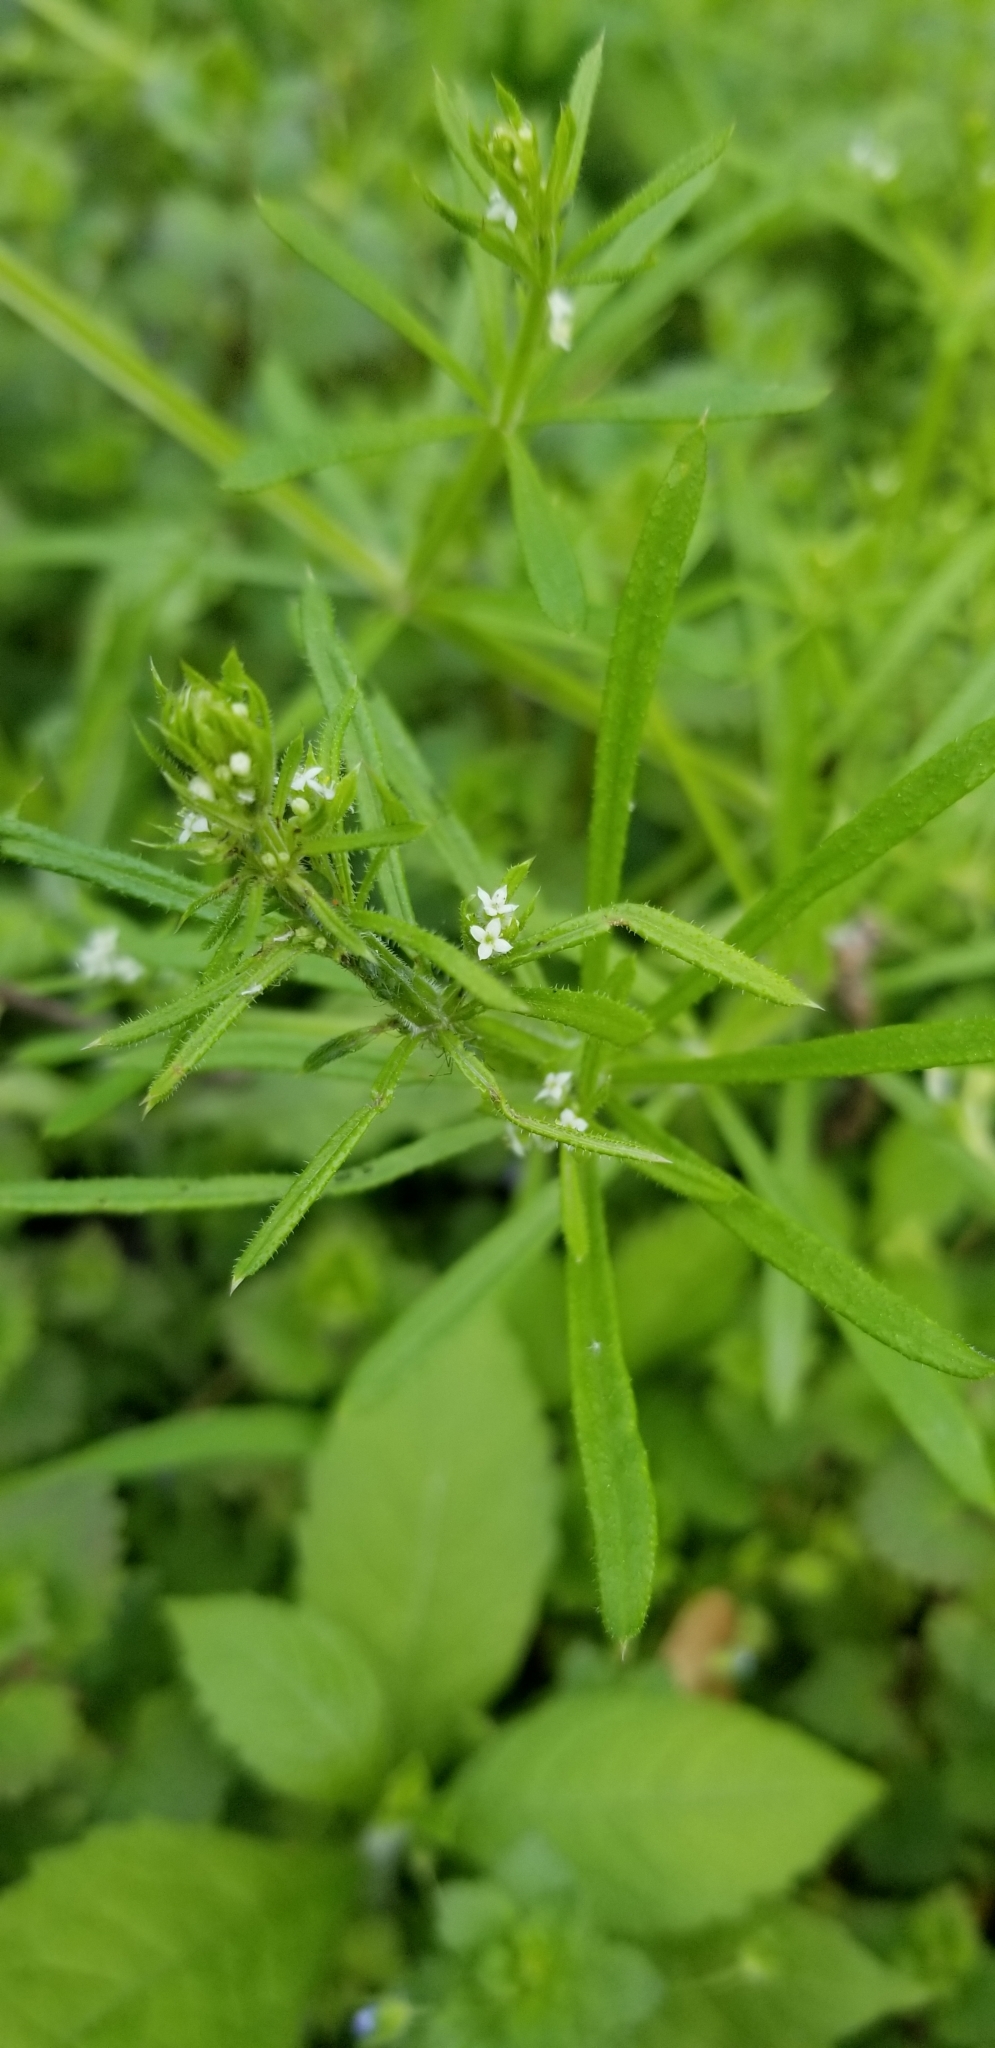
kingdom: Plantae
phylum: Tracheophyta
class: Magnoliopsida
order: Gentianales
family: Rubiaceae
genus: Galium
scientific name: Galium aparine
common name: Cleavers
